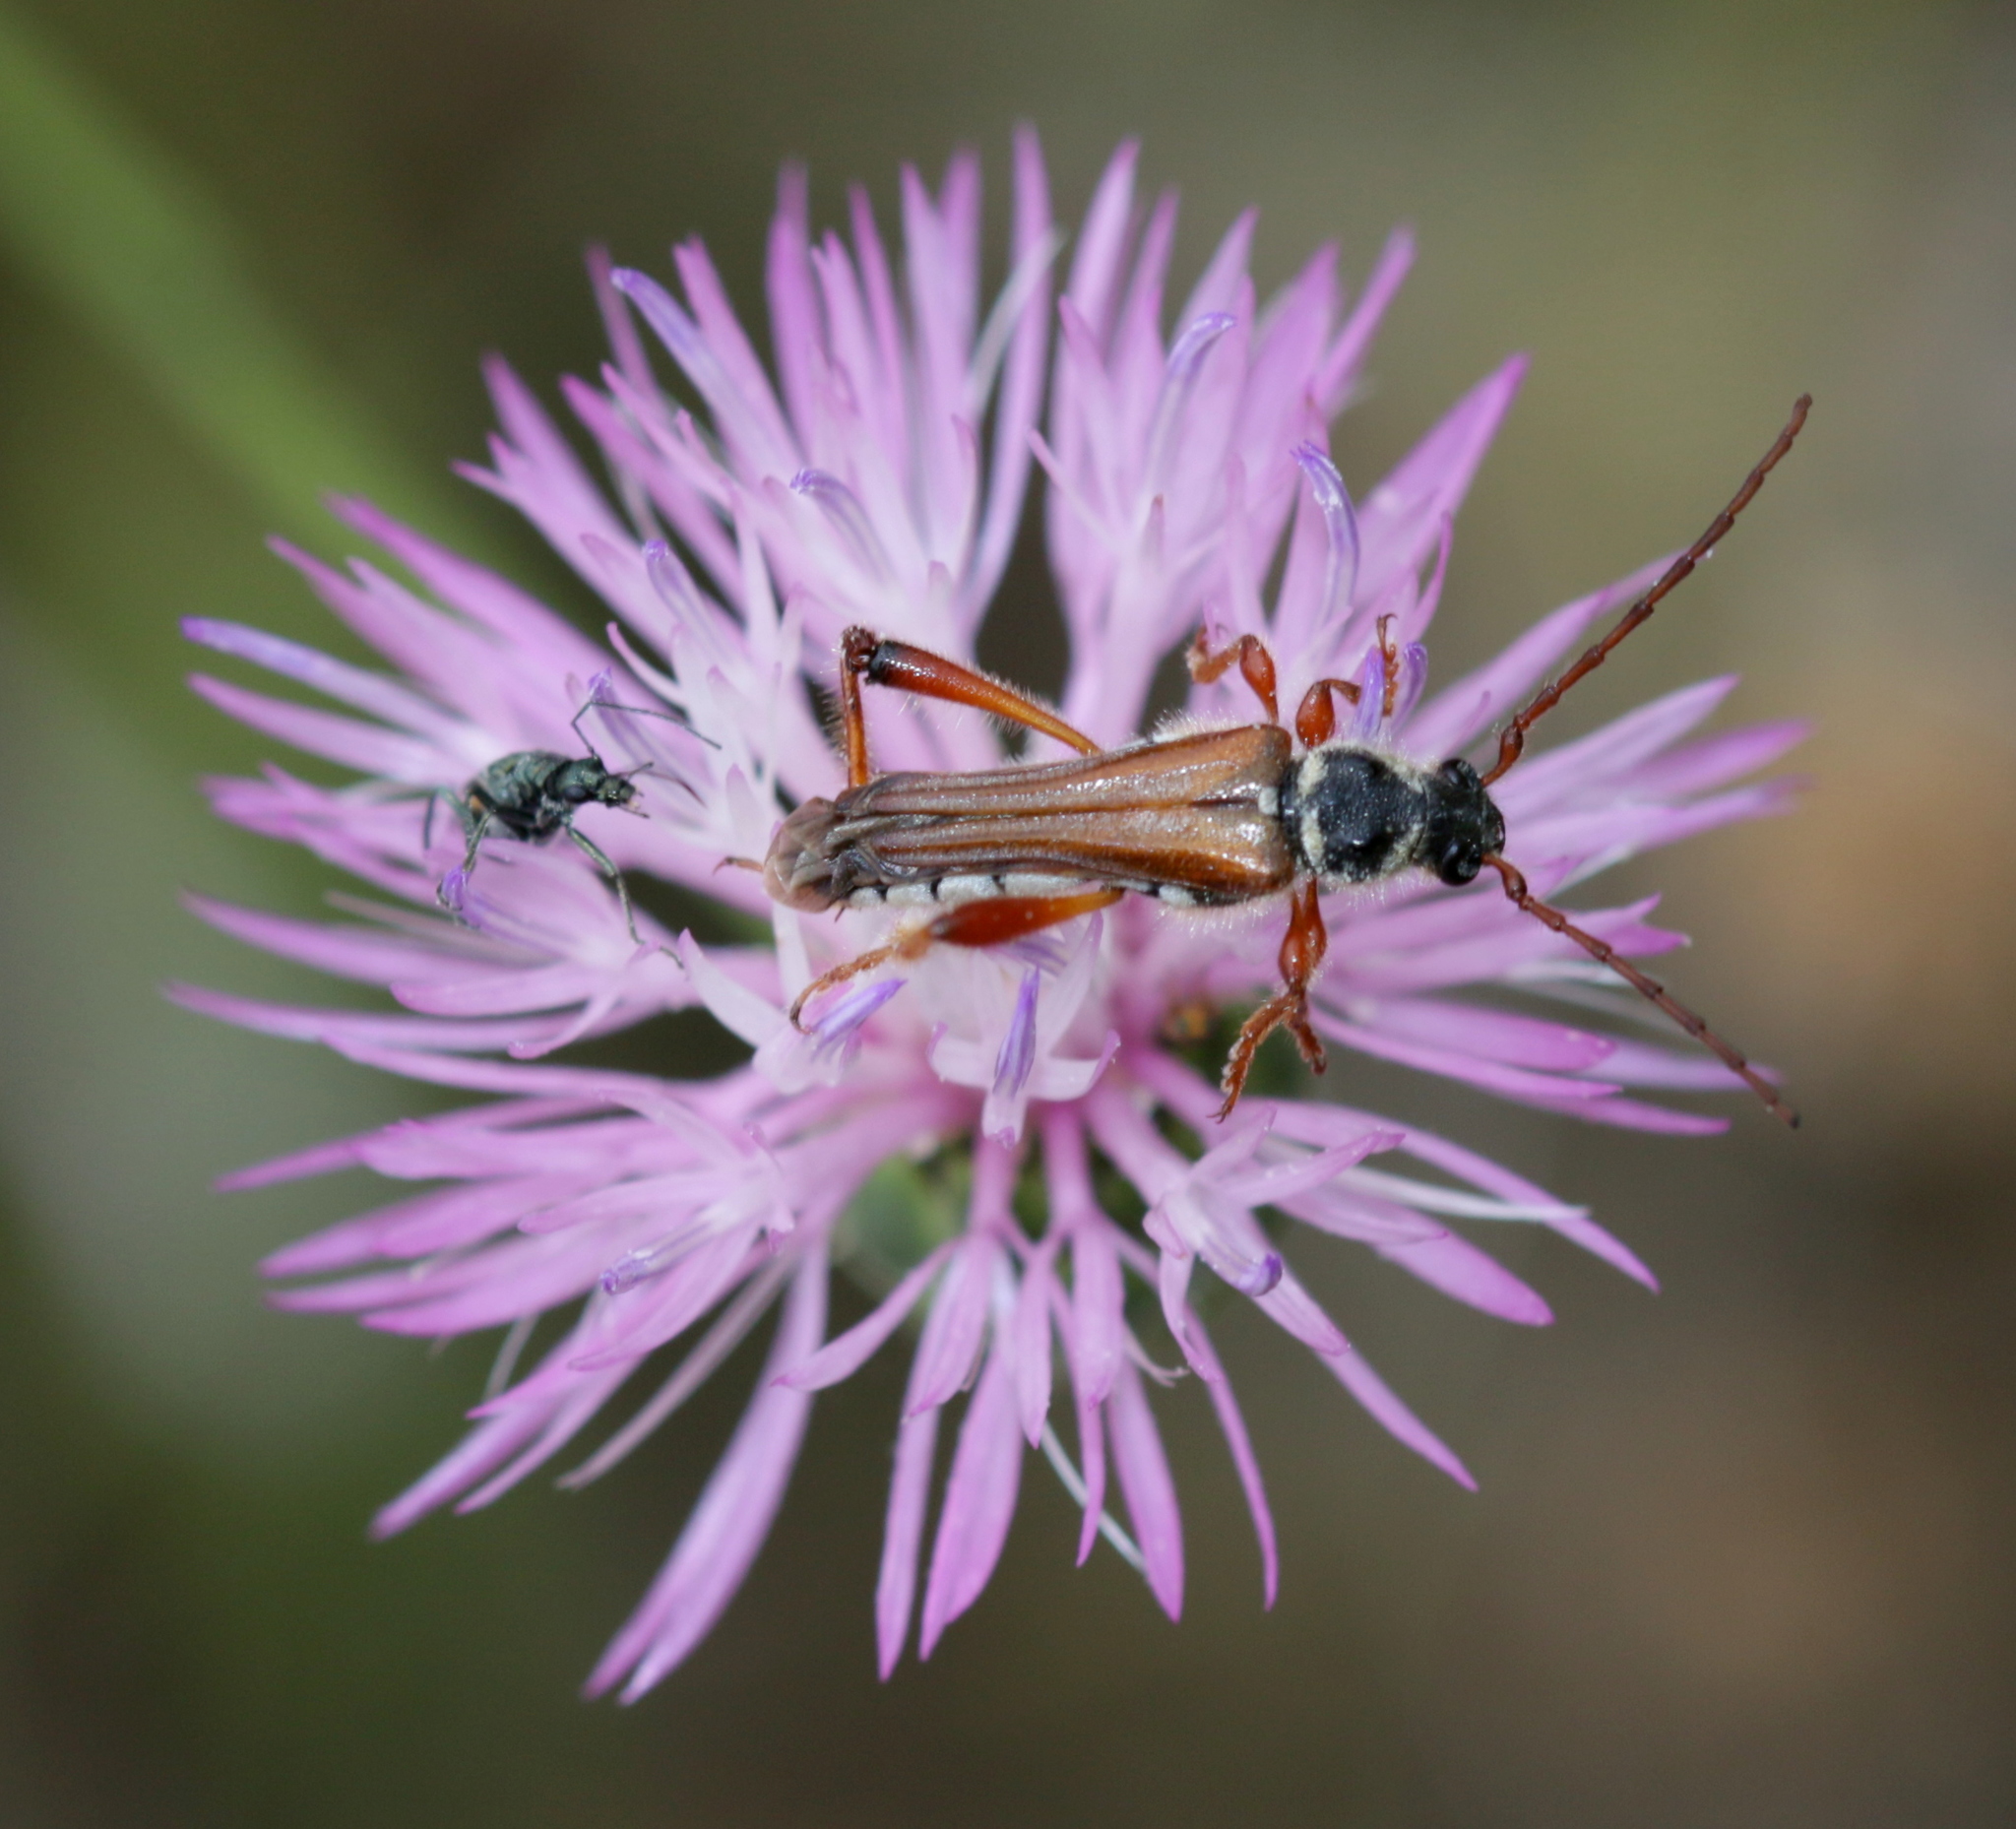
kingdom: Animalia
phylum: Arthropoda
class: Insecta
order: Coleoptera
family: Cerambycidae
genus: Stenopterus
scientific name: Stenopterus rufus
